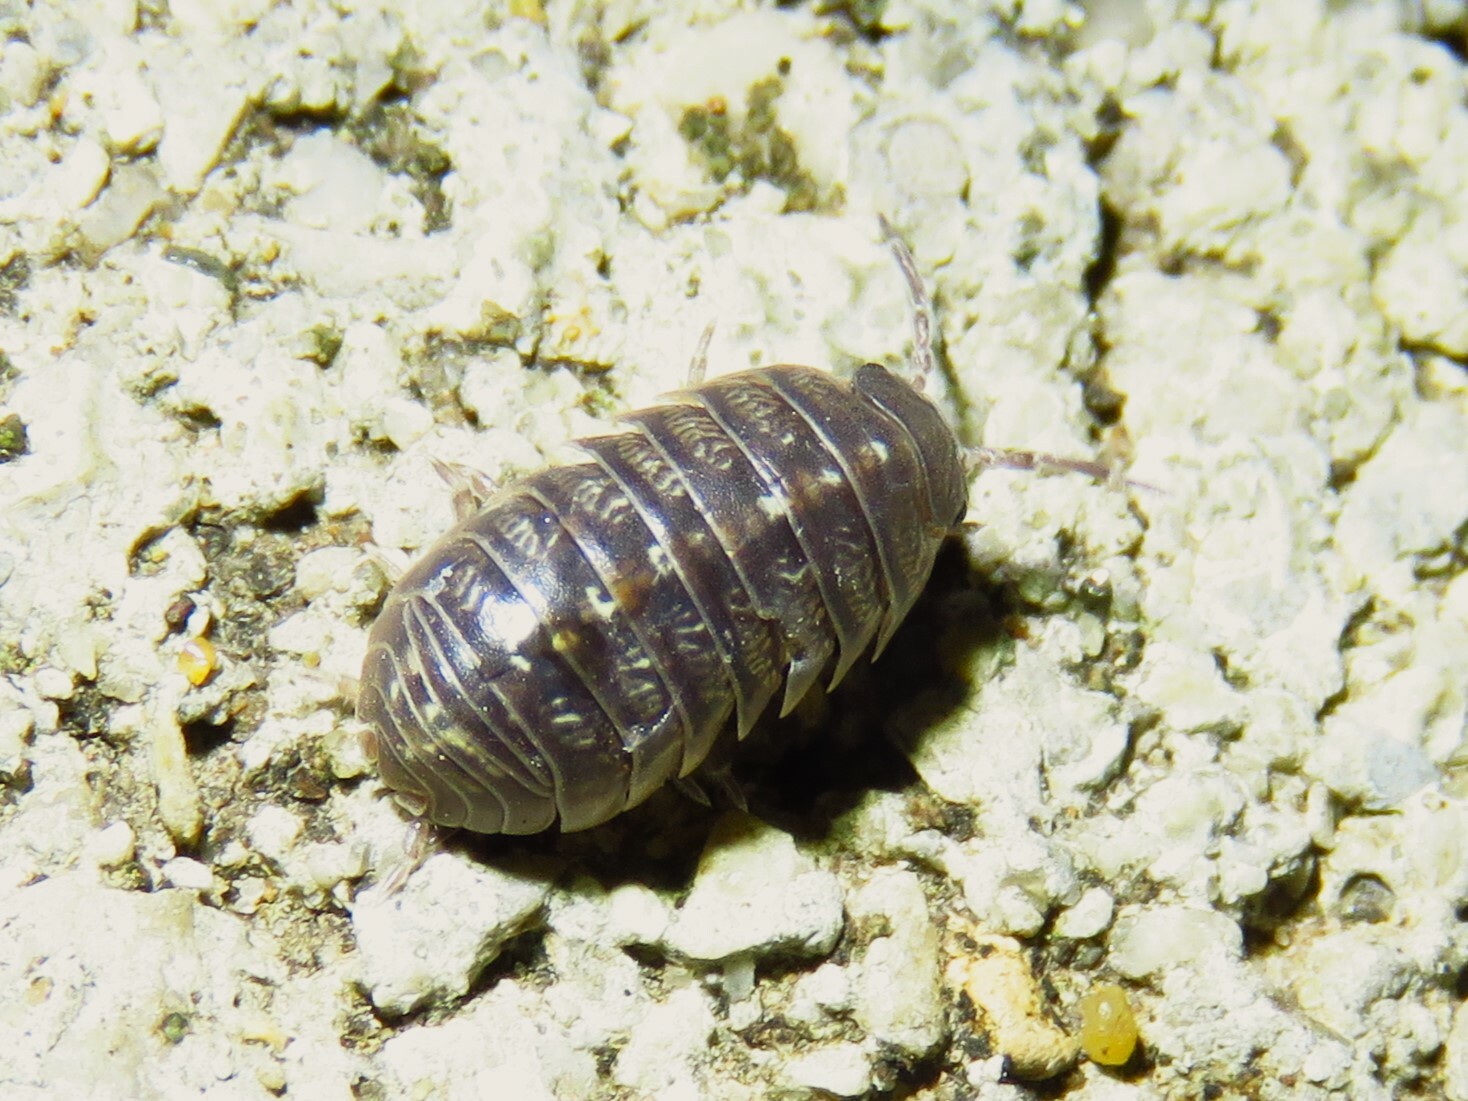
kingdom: Animalia
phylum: Arthropoda
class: Malacostraca
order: Isopoda
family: Armadillidiidae
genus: Armadillidium
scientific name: Armadillidium vulgare
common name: Common pill woodlouse
